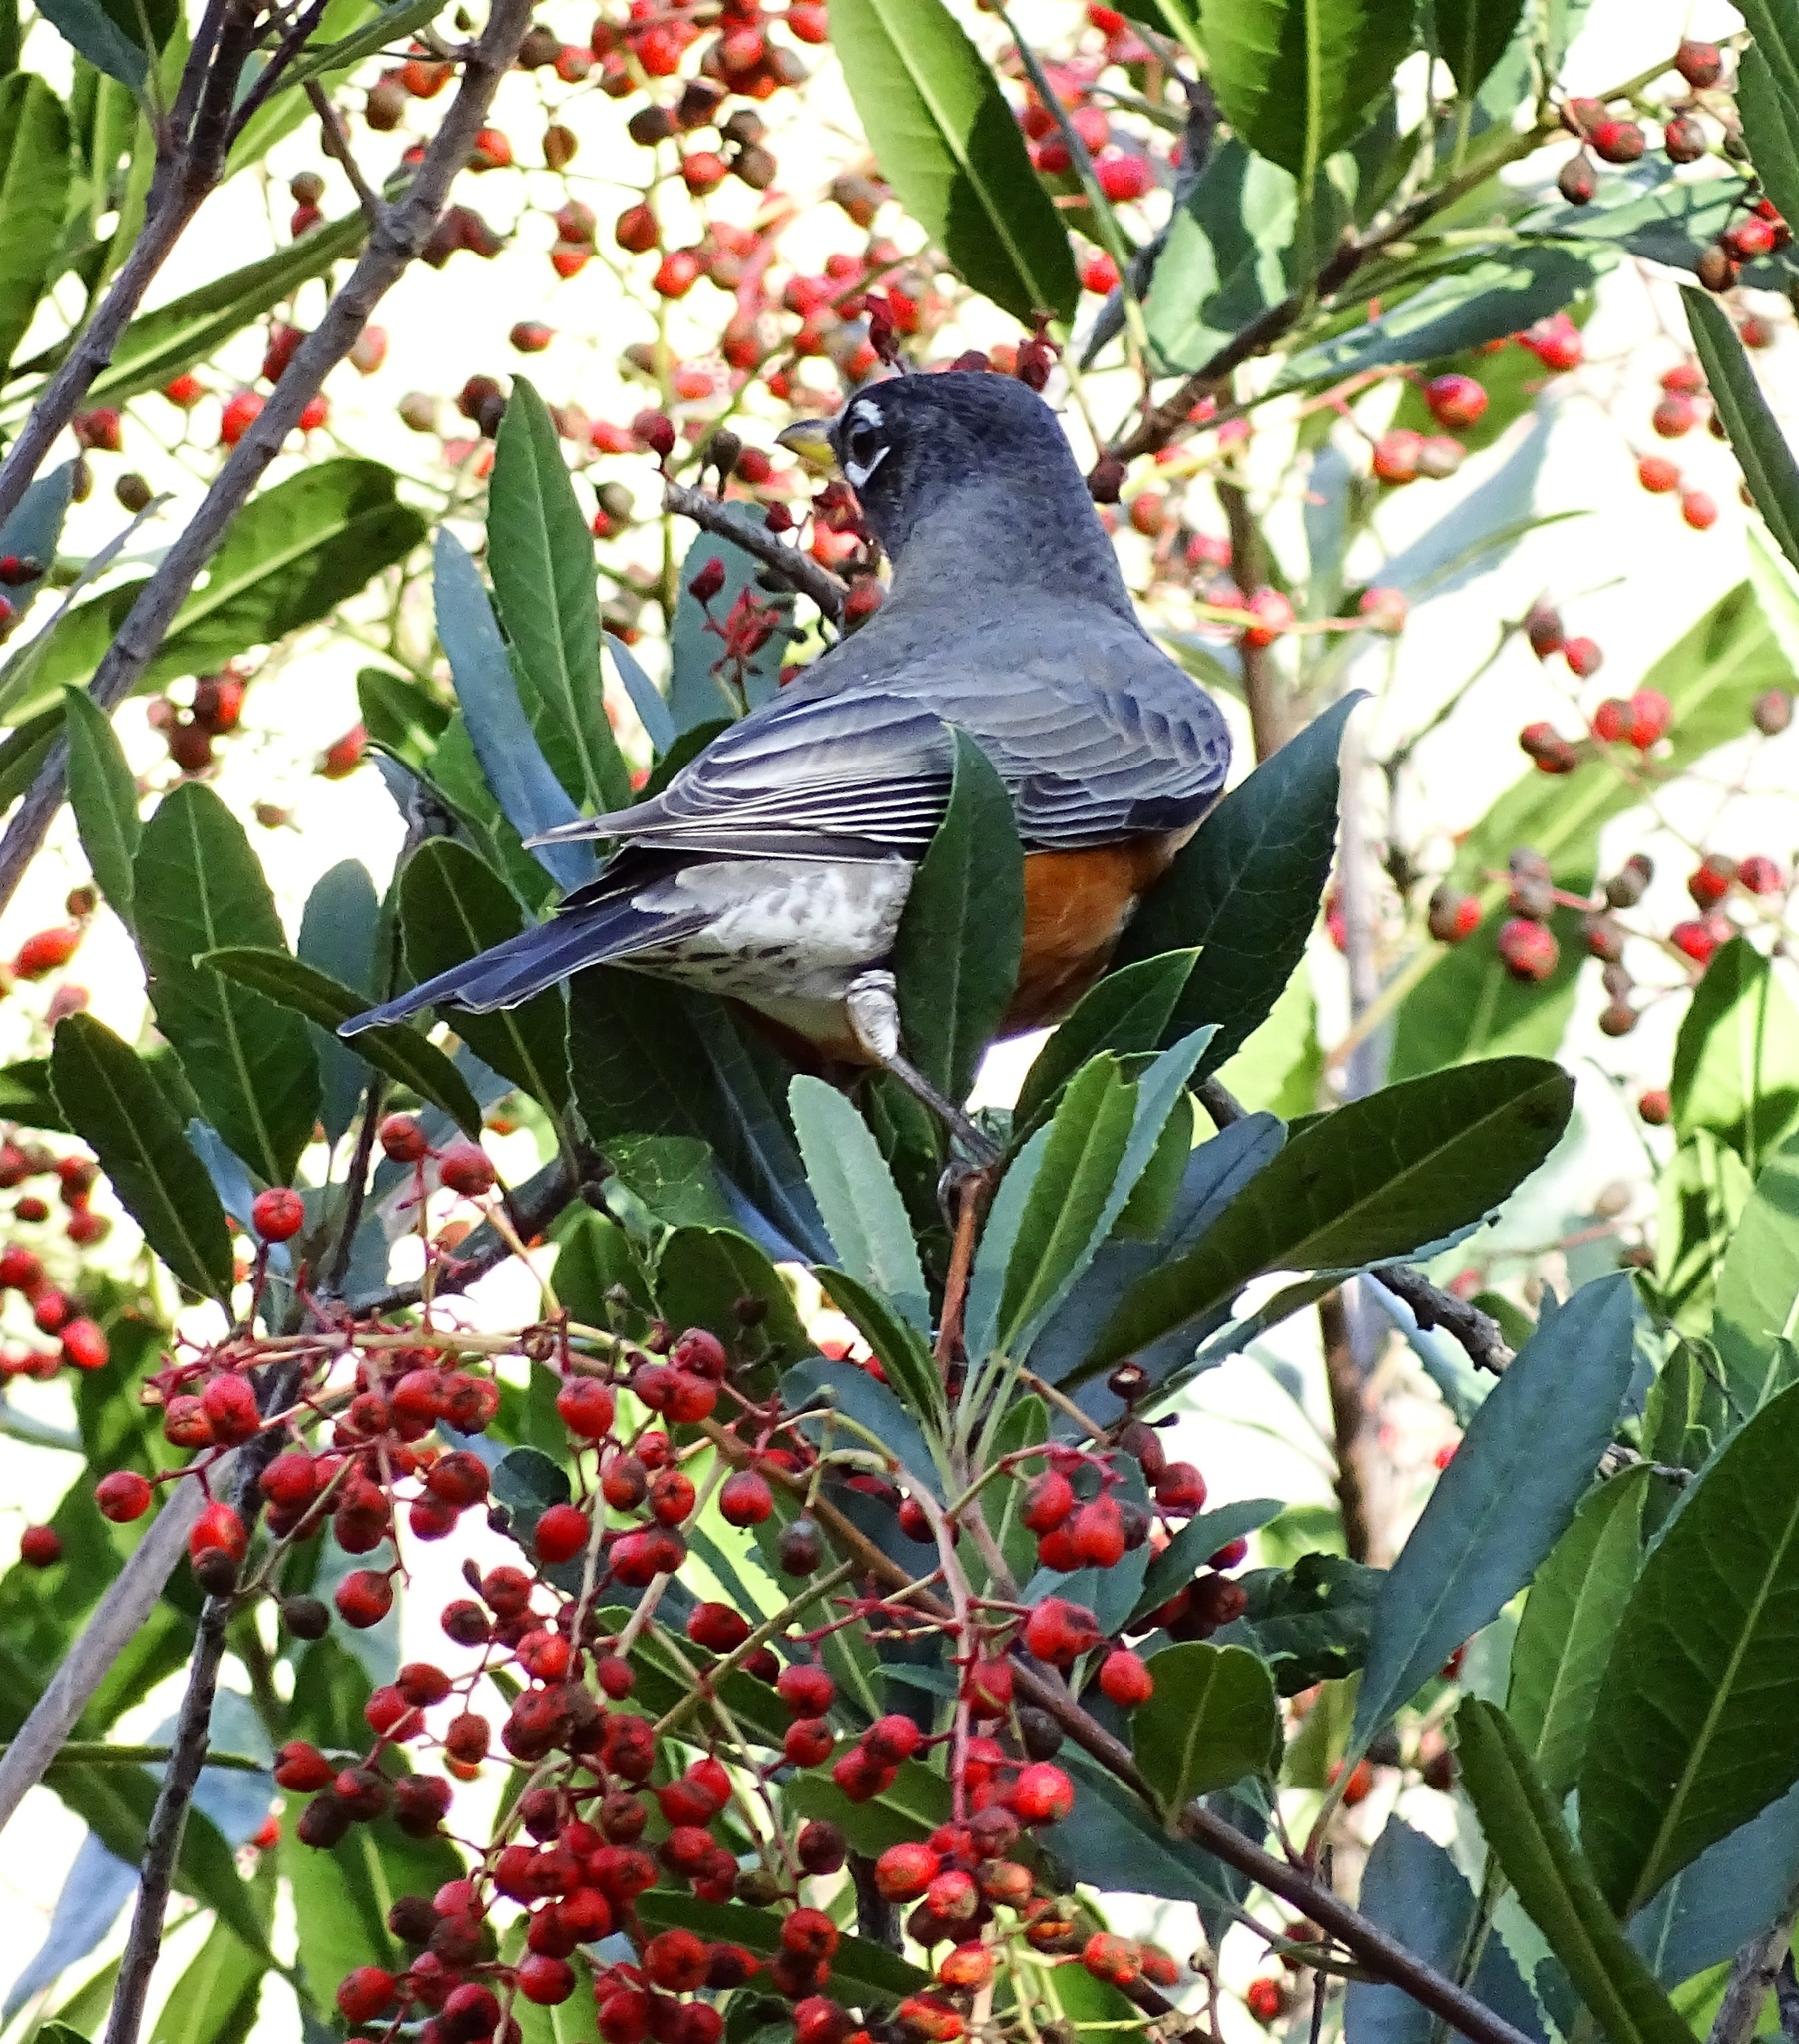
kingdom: Animalia
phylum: Chordata
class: Aves
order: Passeriformes
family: Turdidae
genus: Turdus
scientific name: Turdus migratorius
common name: American robin
